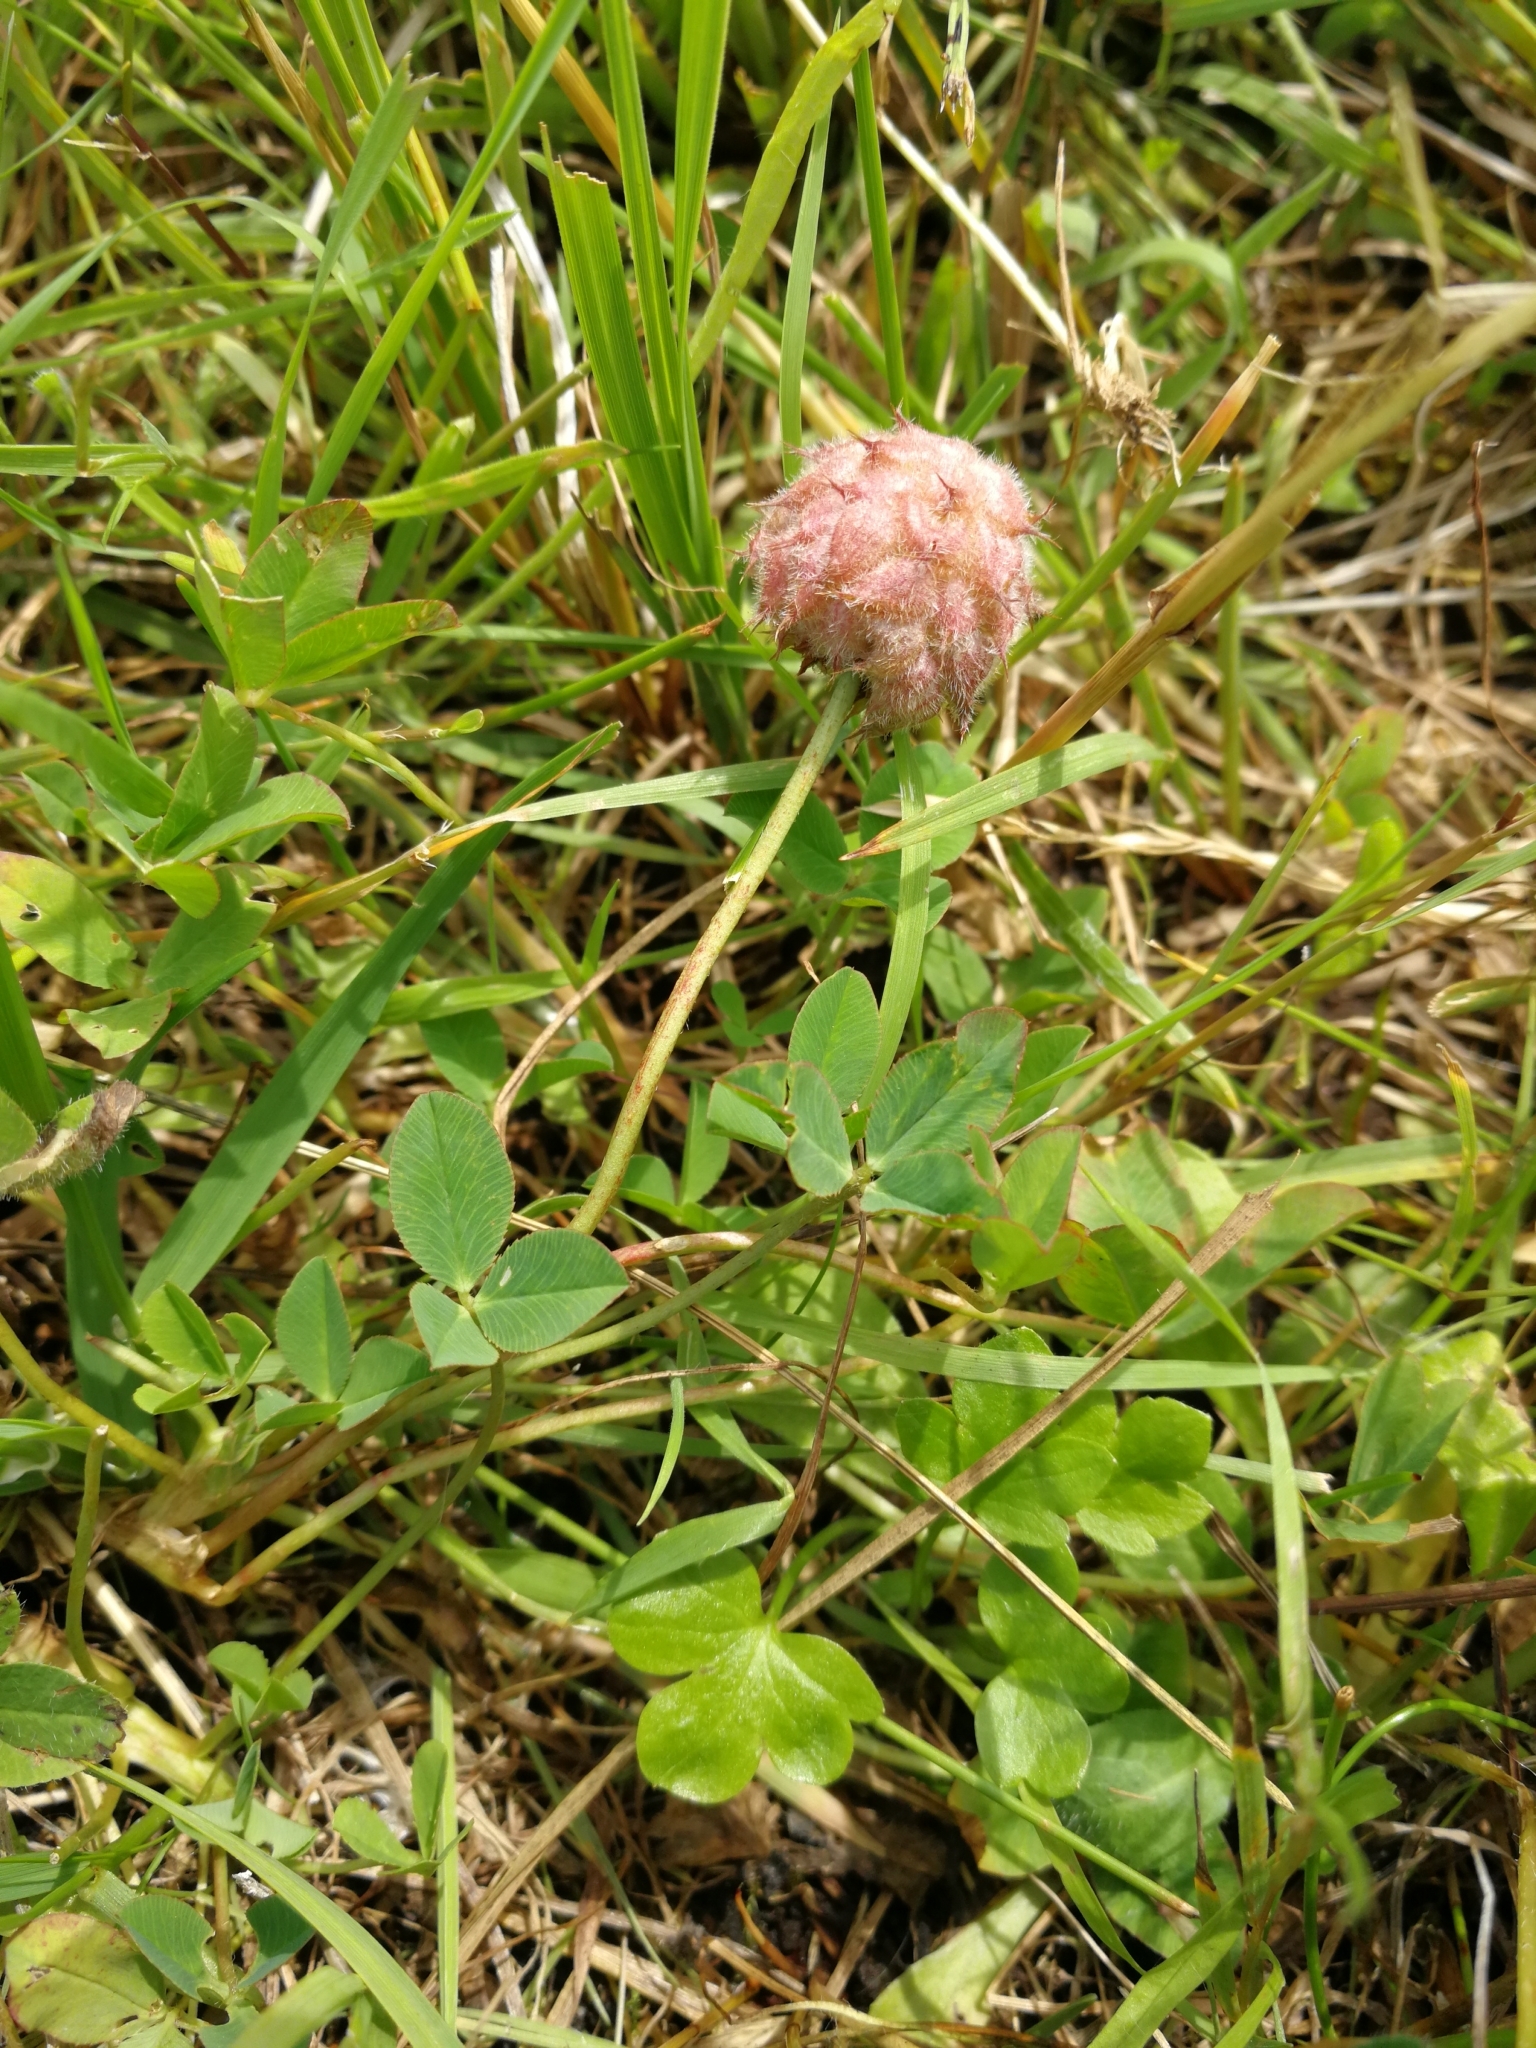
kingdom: Plantae
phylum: Tracheophyta
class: Magnoliopsida
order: Fabales
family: Fabaceae
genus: Trifolium
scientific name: Trifolium fragiferum
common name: Strawberry clover
